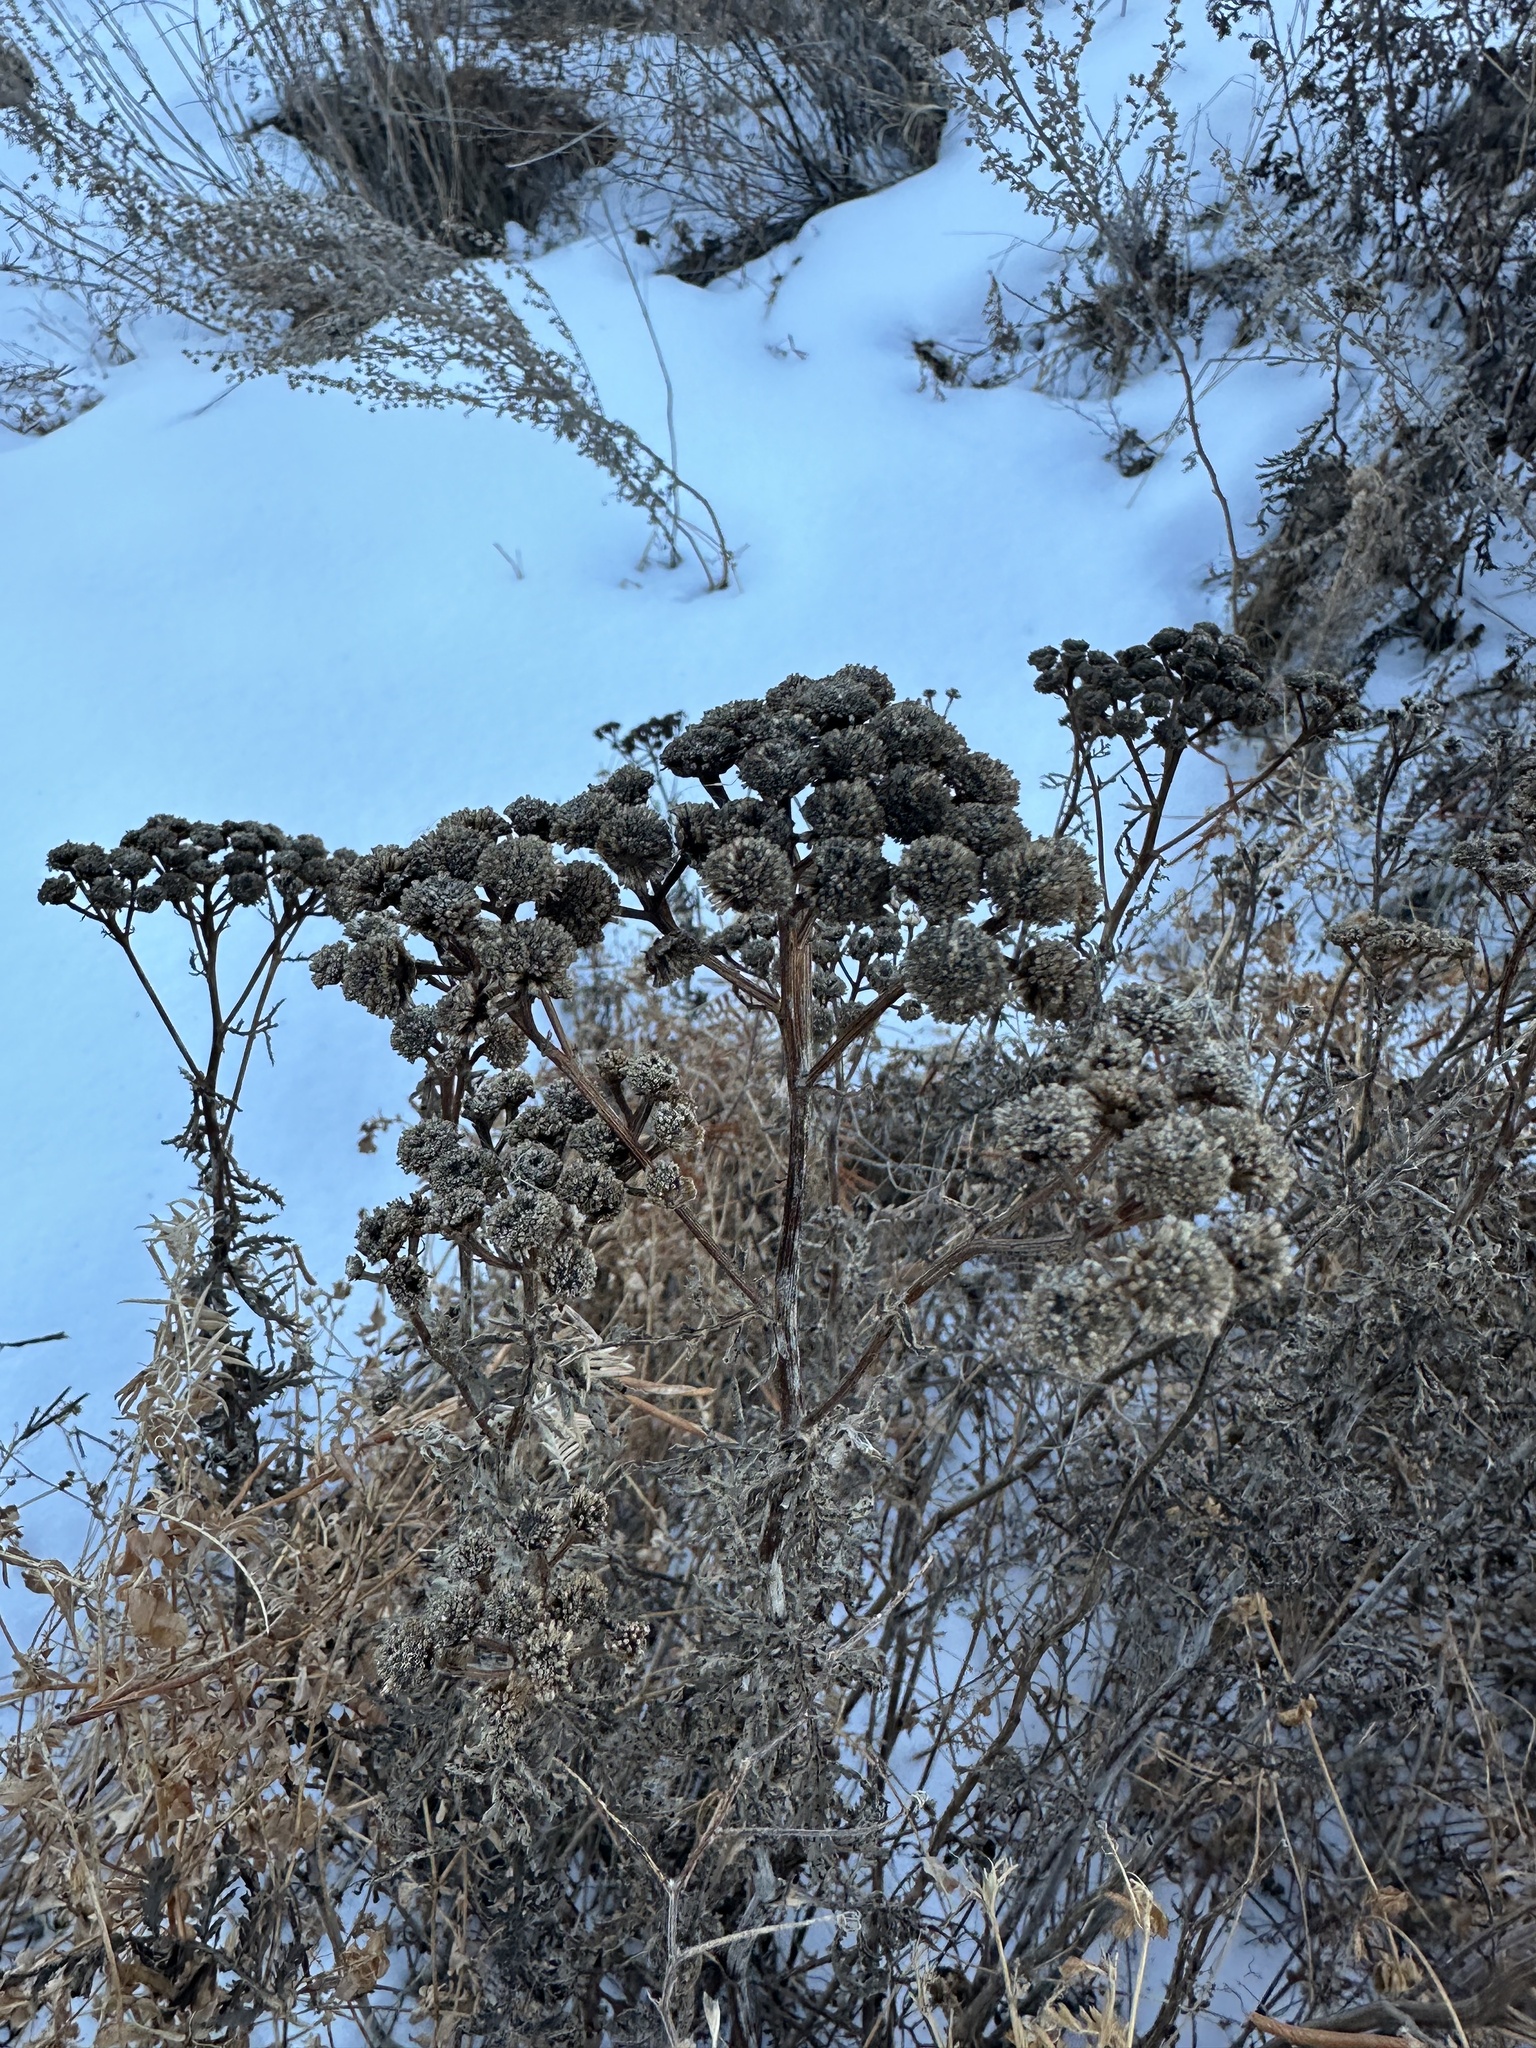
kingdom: Plantae
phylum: Tracheophyta
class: Magnoliopsida
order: Asterales
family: Asteraceae
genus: Tanacetum
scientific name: Tanacetum vulgare
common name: Common tansy
